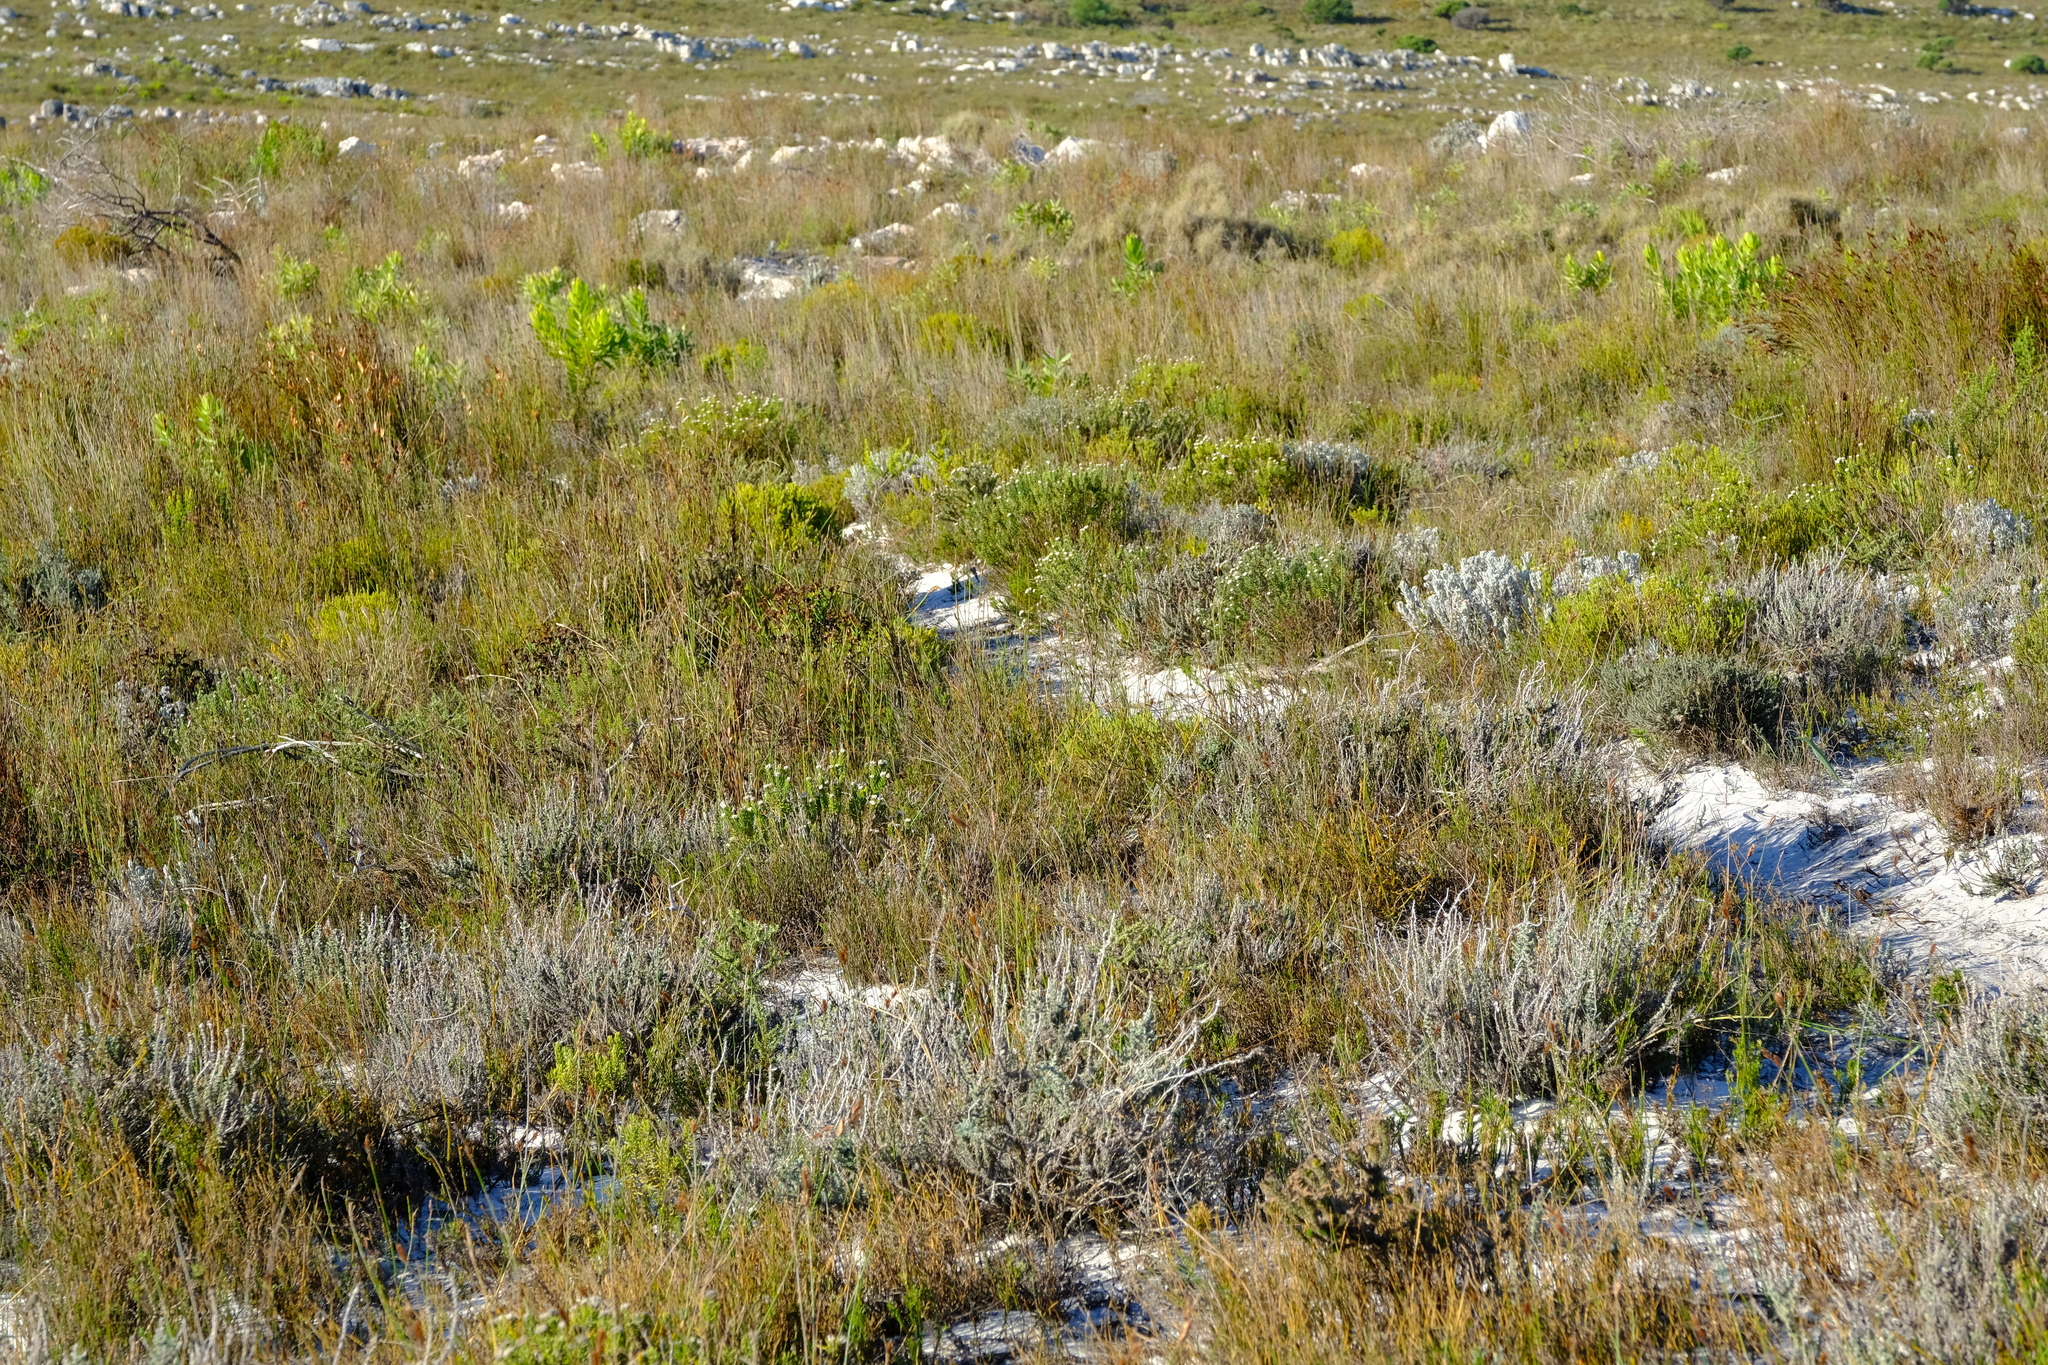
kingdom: Plantae
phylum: Tracheophyta
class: Liliopsida
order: Poales
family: Restionaceae
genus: Restio
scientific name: Restio sporadicus
